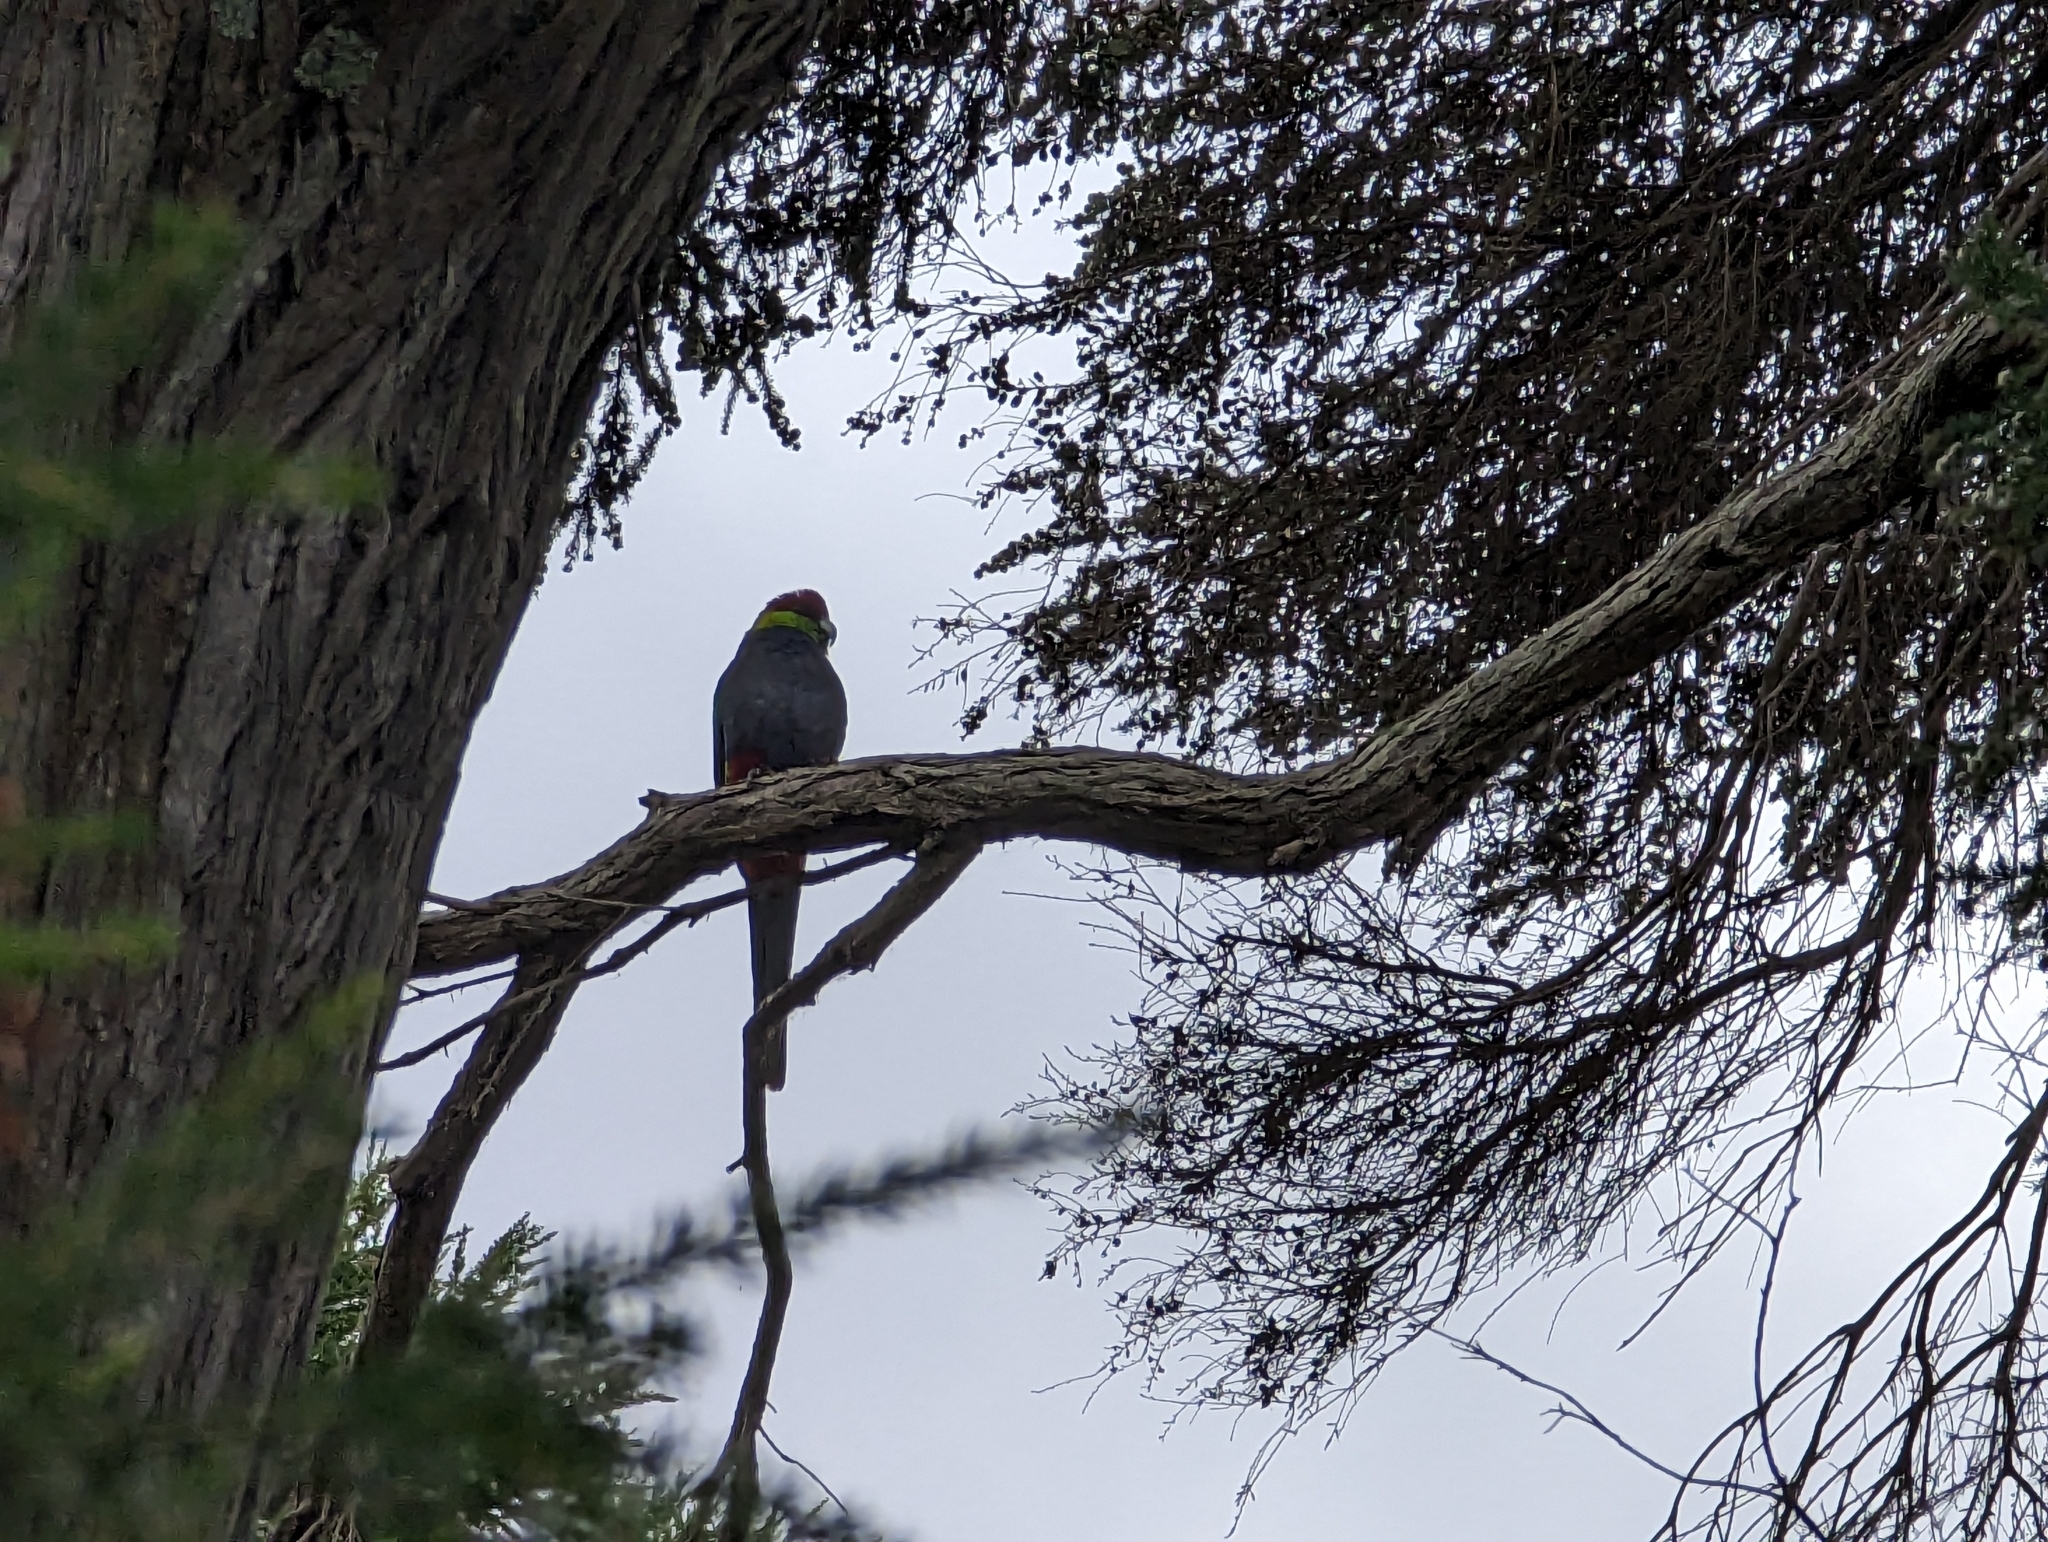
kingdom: Animalia
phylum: Chordata
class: Aves
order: Psittaciformes
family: Psittacidae
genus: Purpureicephalus
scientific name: Purpureicephalus spurius
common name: Red-capped parrot
